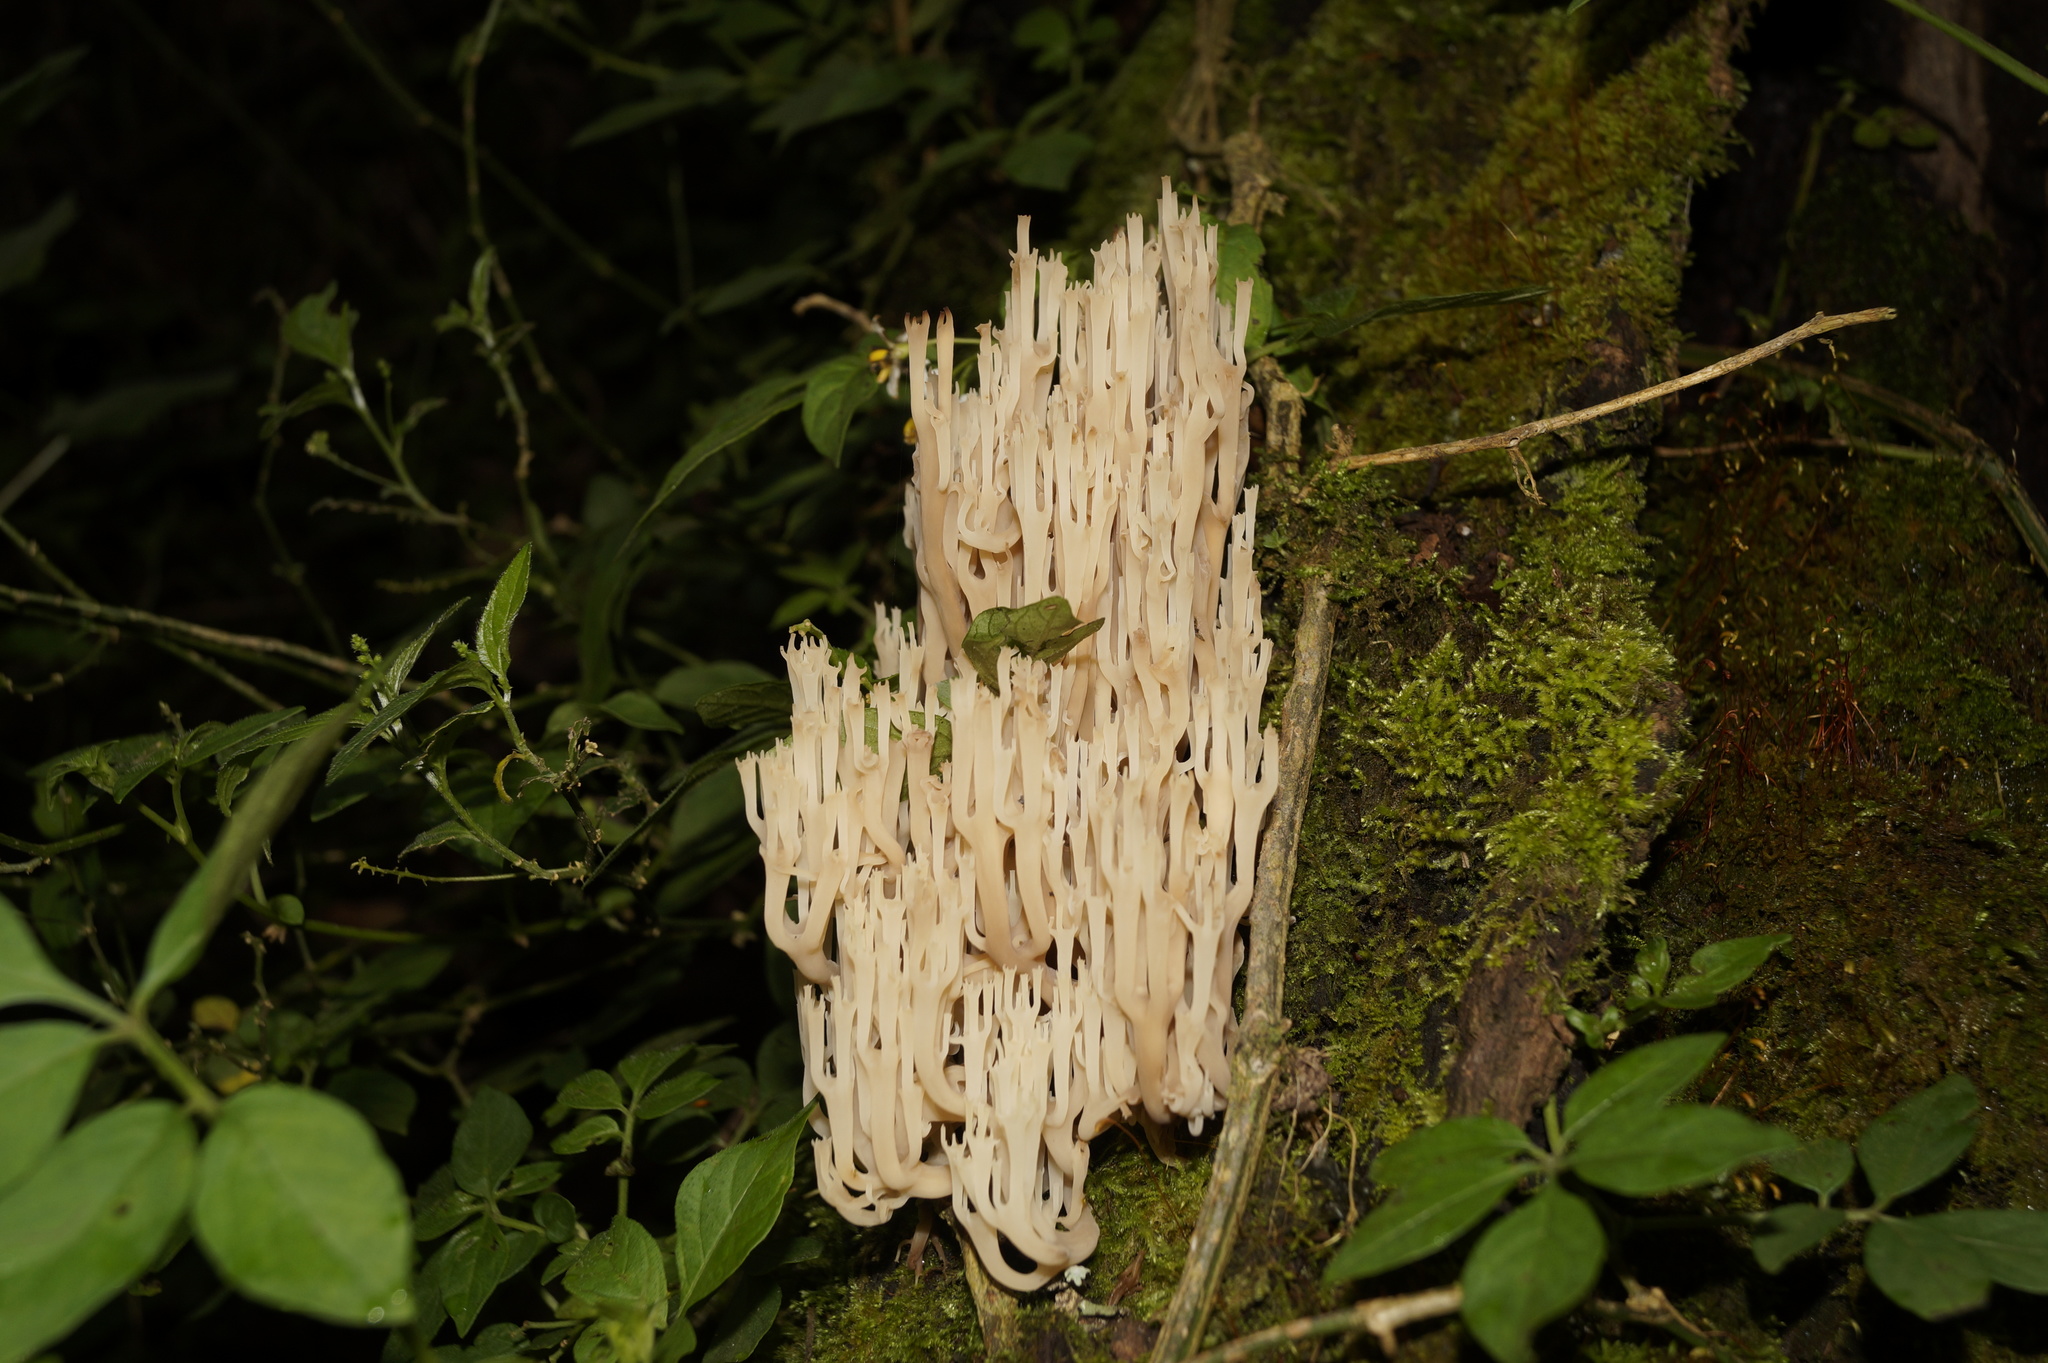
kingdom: Fungi
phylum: Basidiomycota
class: Agaricomycetes
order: Russulales
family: Auriscalpiaceae
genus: Artomyces
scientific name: Artomyces pyxidatus
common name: Crown-tipped coral fungus
